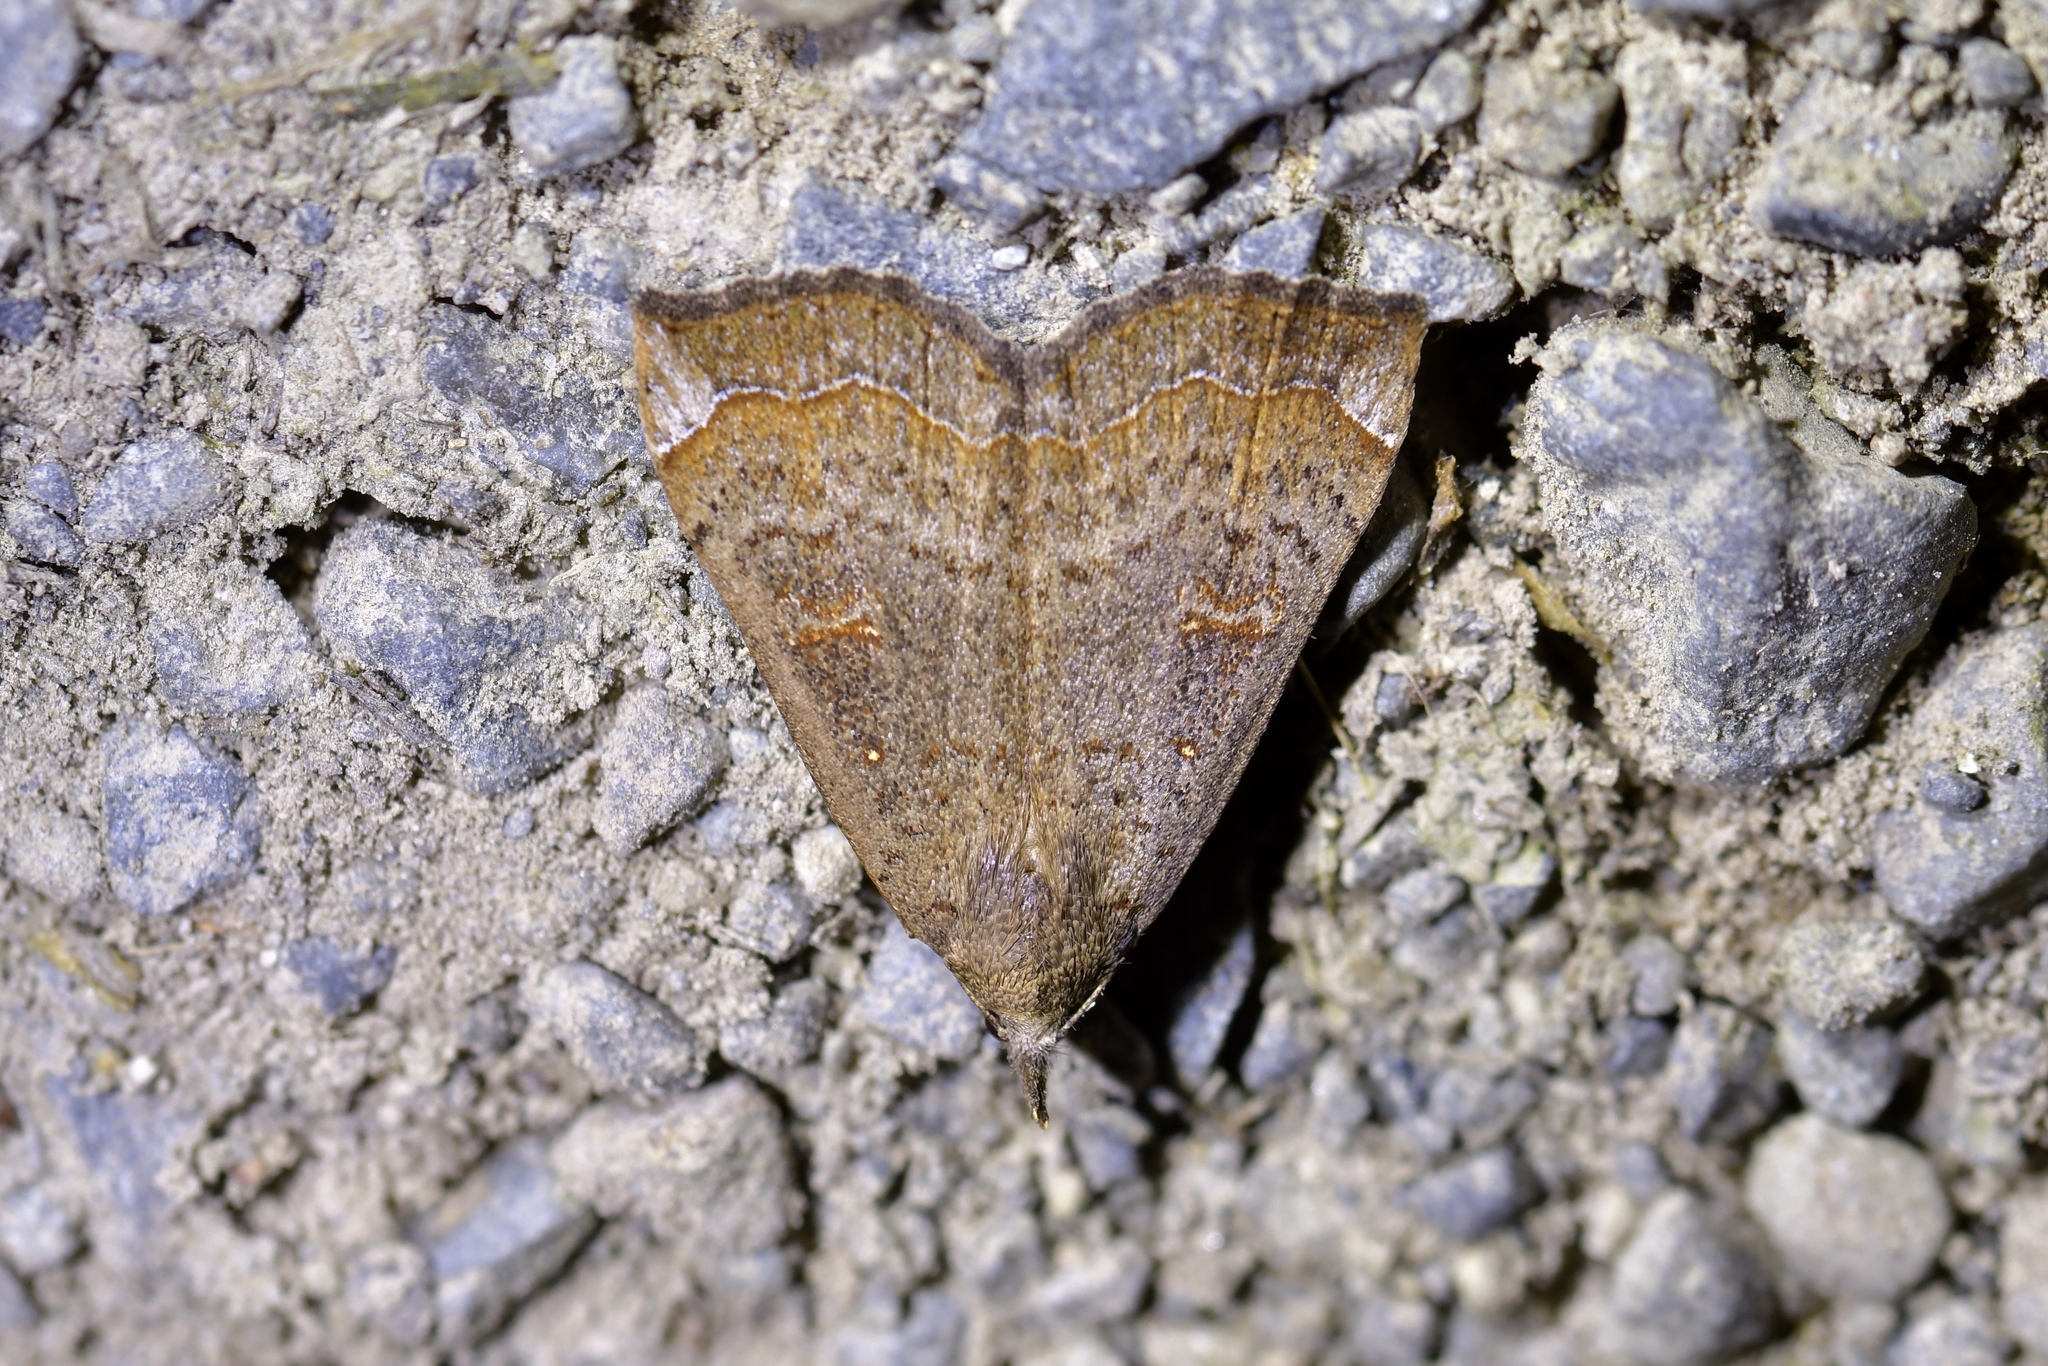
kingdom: Animalia
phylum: Arthropoda
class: Insecta
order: Lepidoptera
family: Erebidae
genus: Rhapsa
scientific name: Rhapsa scotosialis
